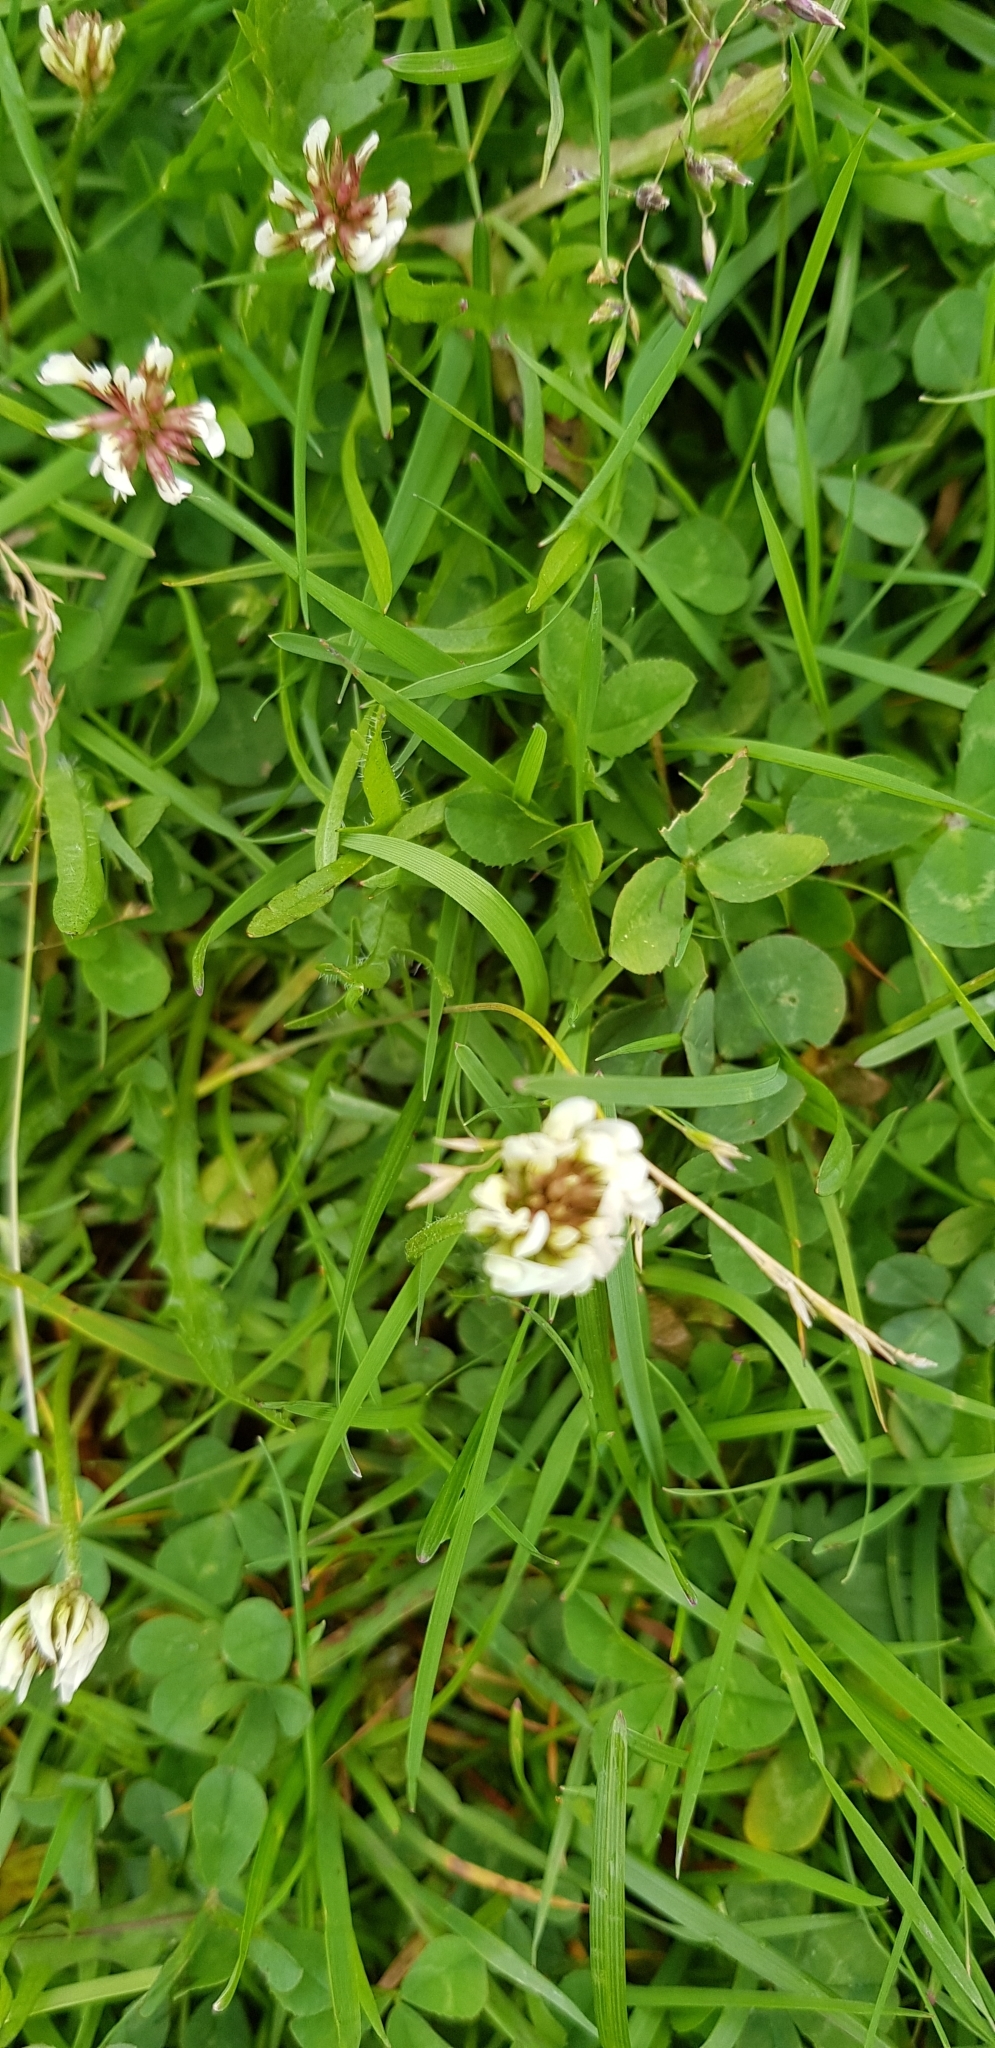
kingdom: Plantae
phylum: Tracheophyta
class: Magnoliopsida
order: Fabales
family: Fabaceae
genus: Trifolium
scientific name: Trifolium repens
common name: White clover
